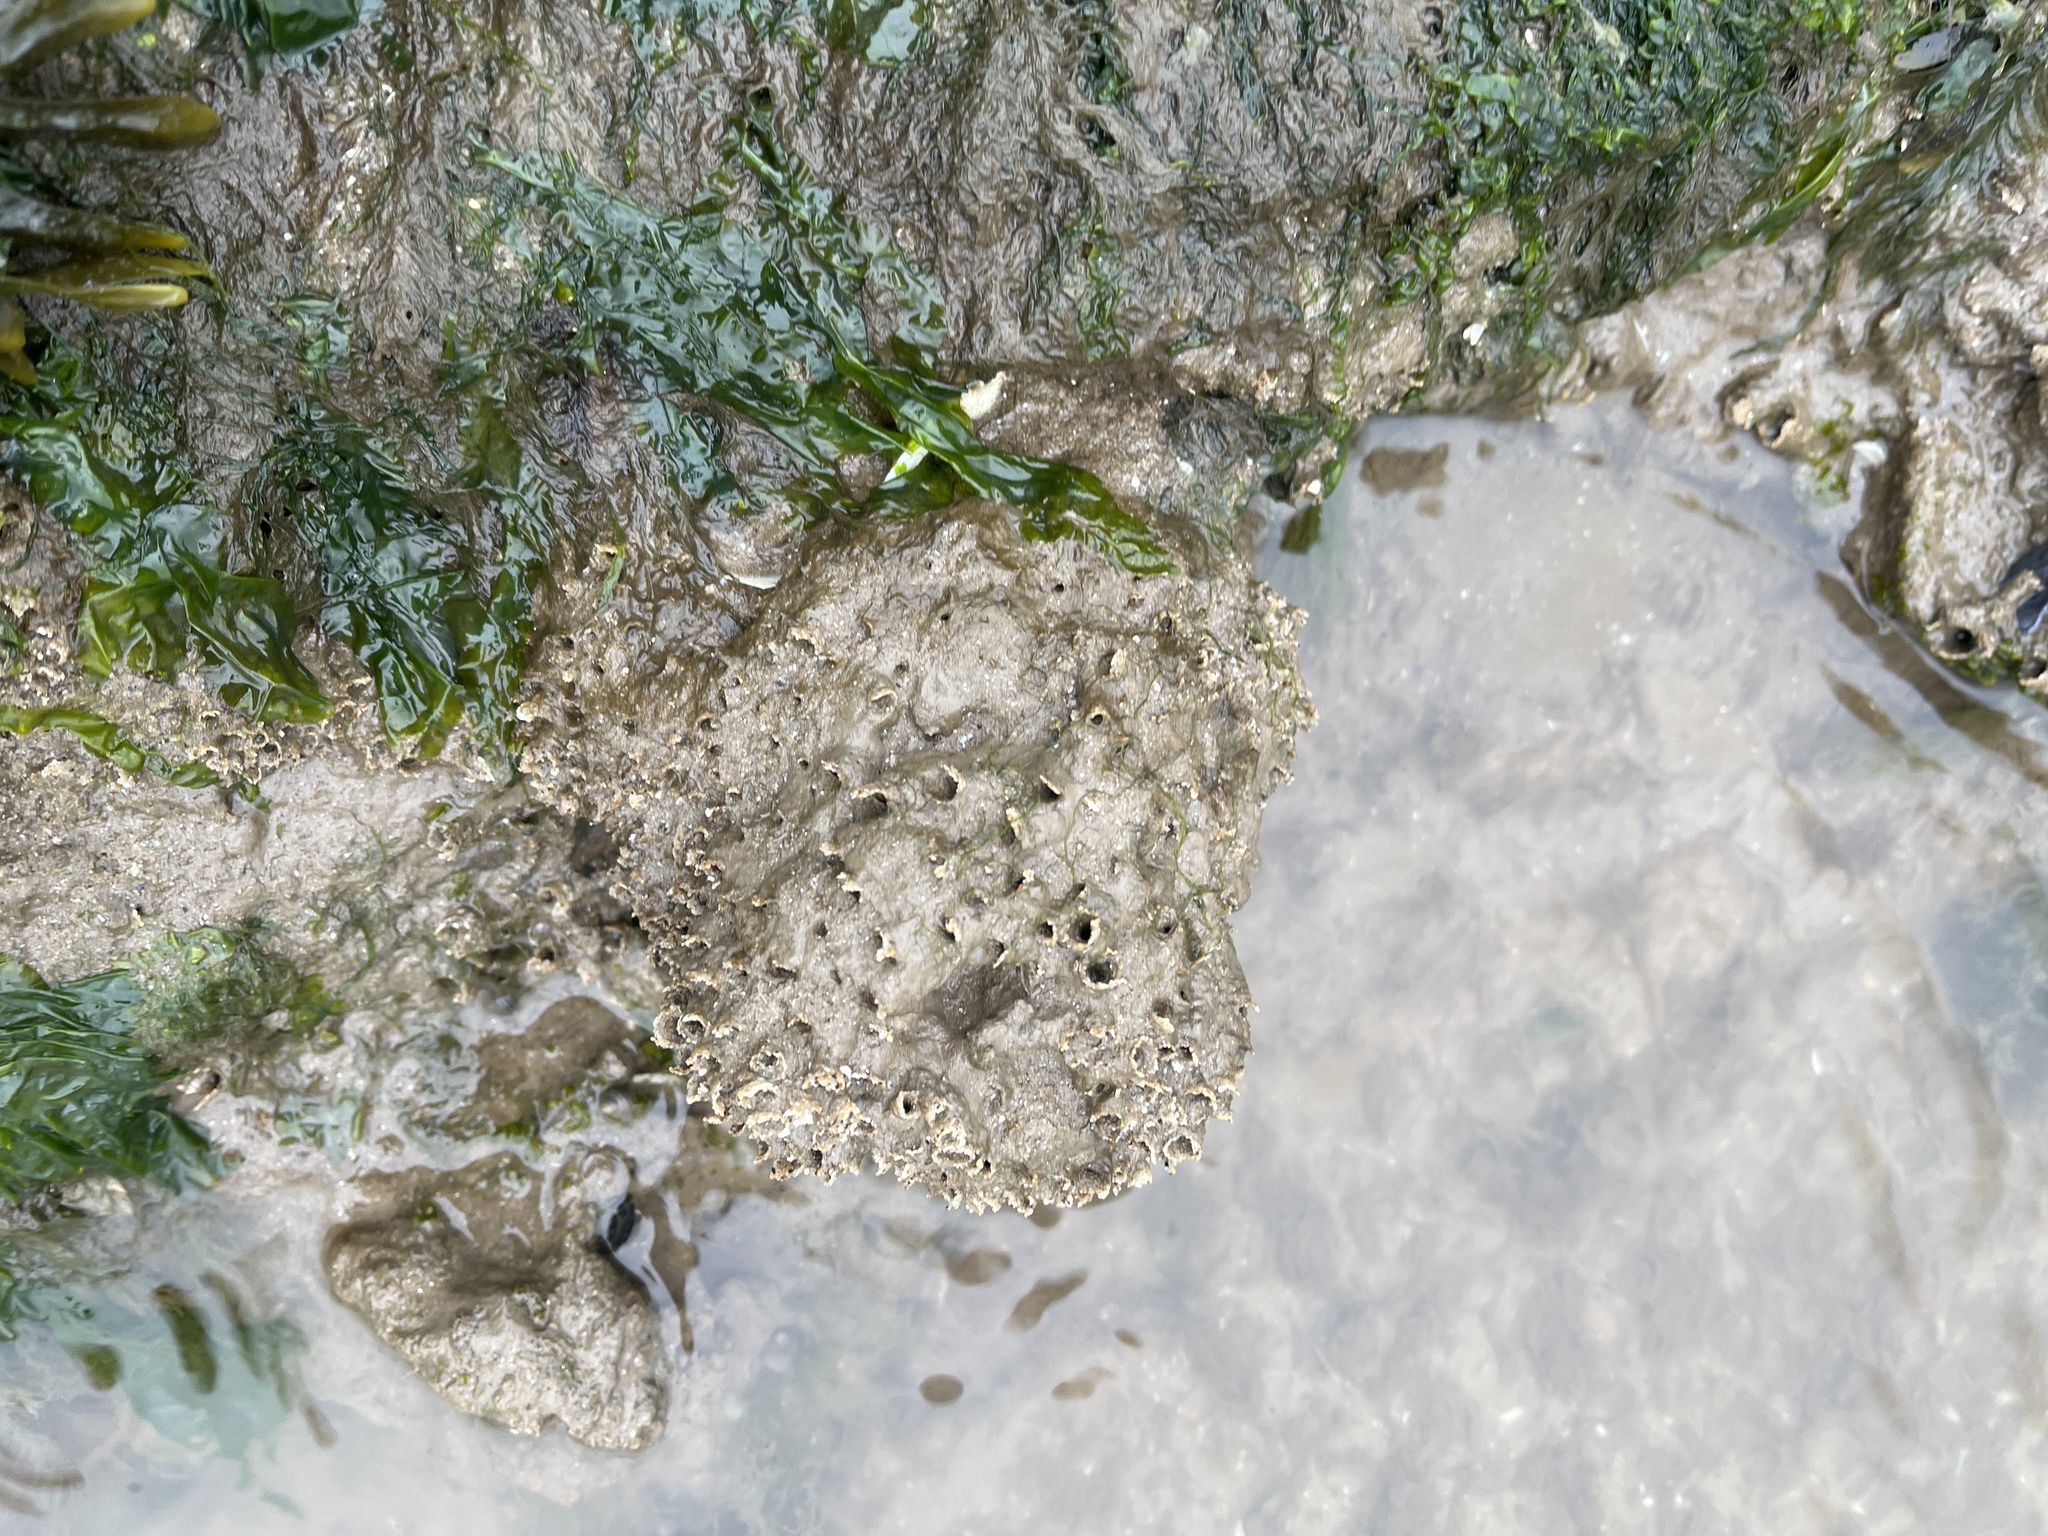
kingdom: Animalia
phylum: Annelida
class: Polychaeta
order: Sabellida
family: Sabellariidae
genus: Sabellaria
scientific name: Sabellaria alveolata
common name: Honeycomb worm
